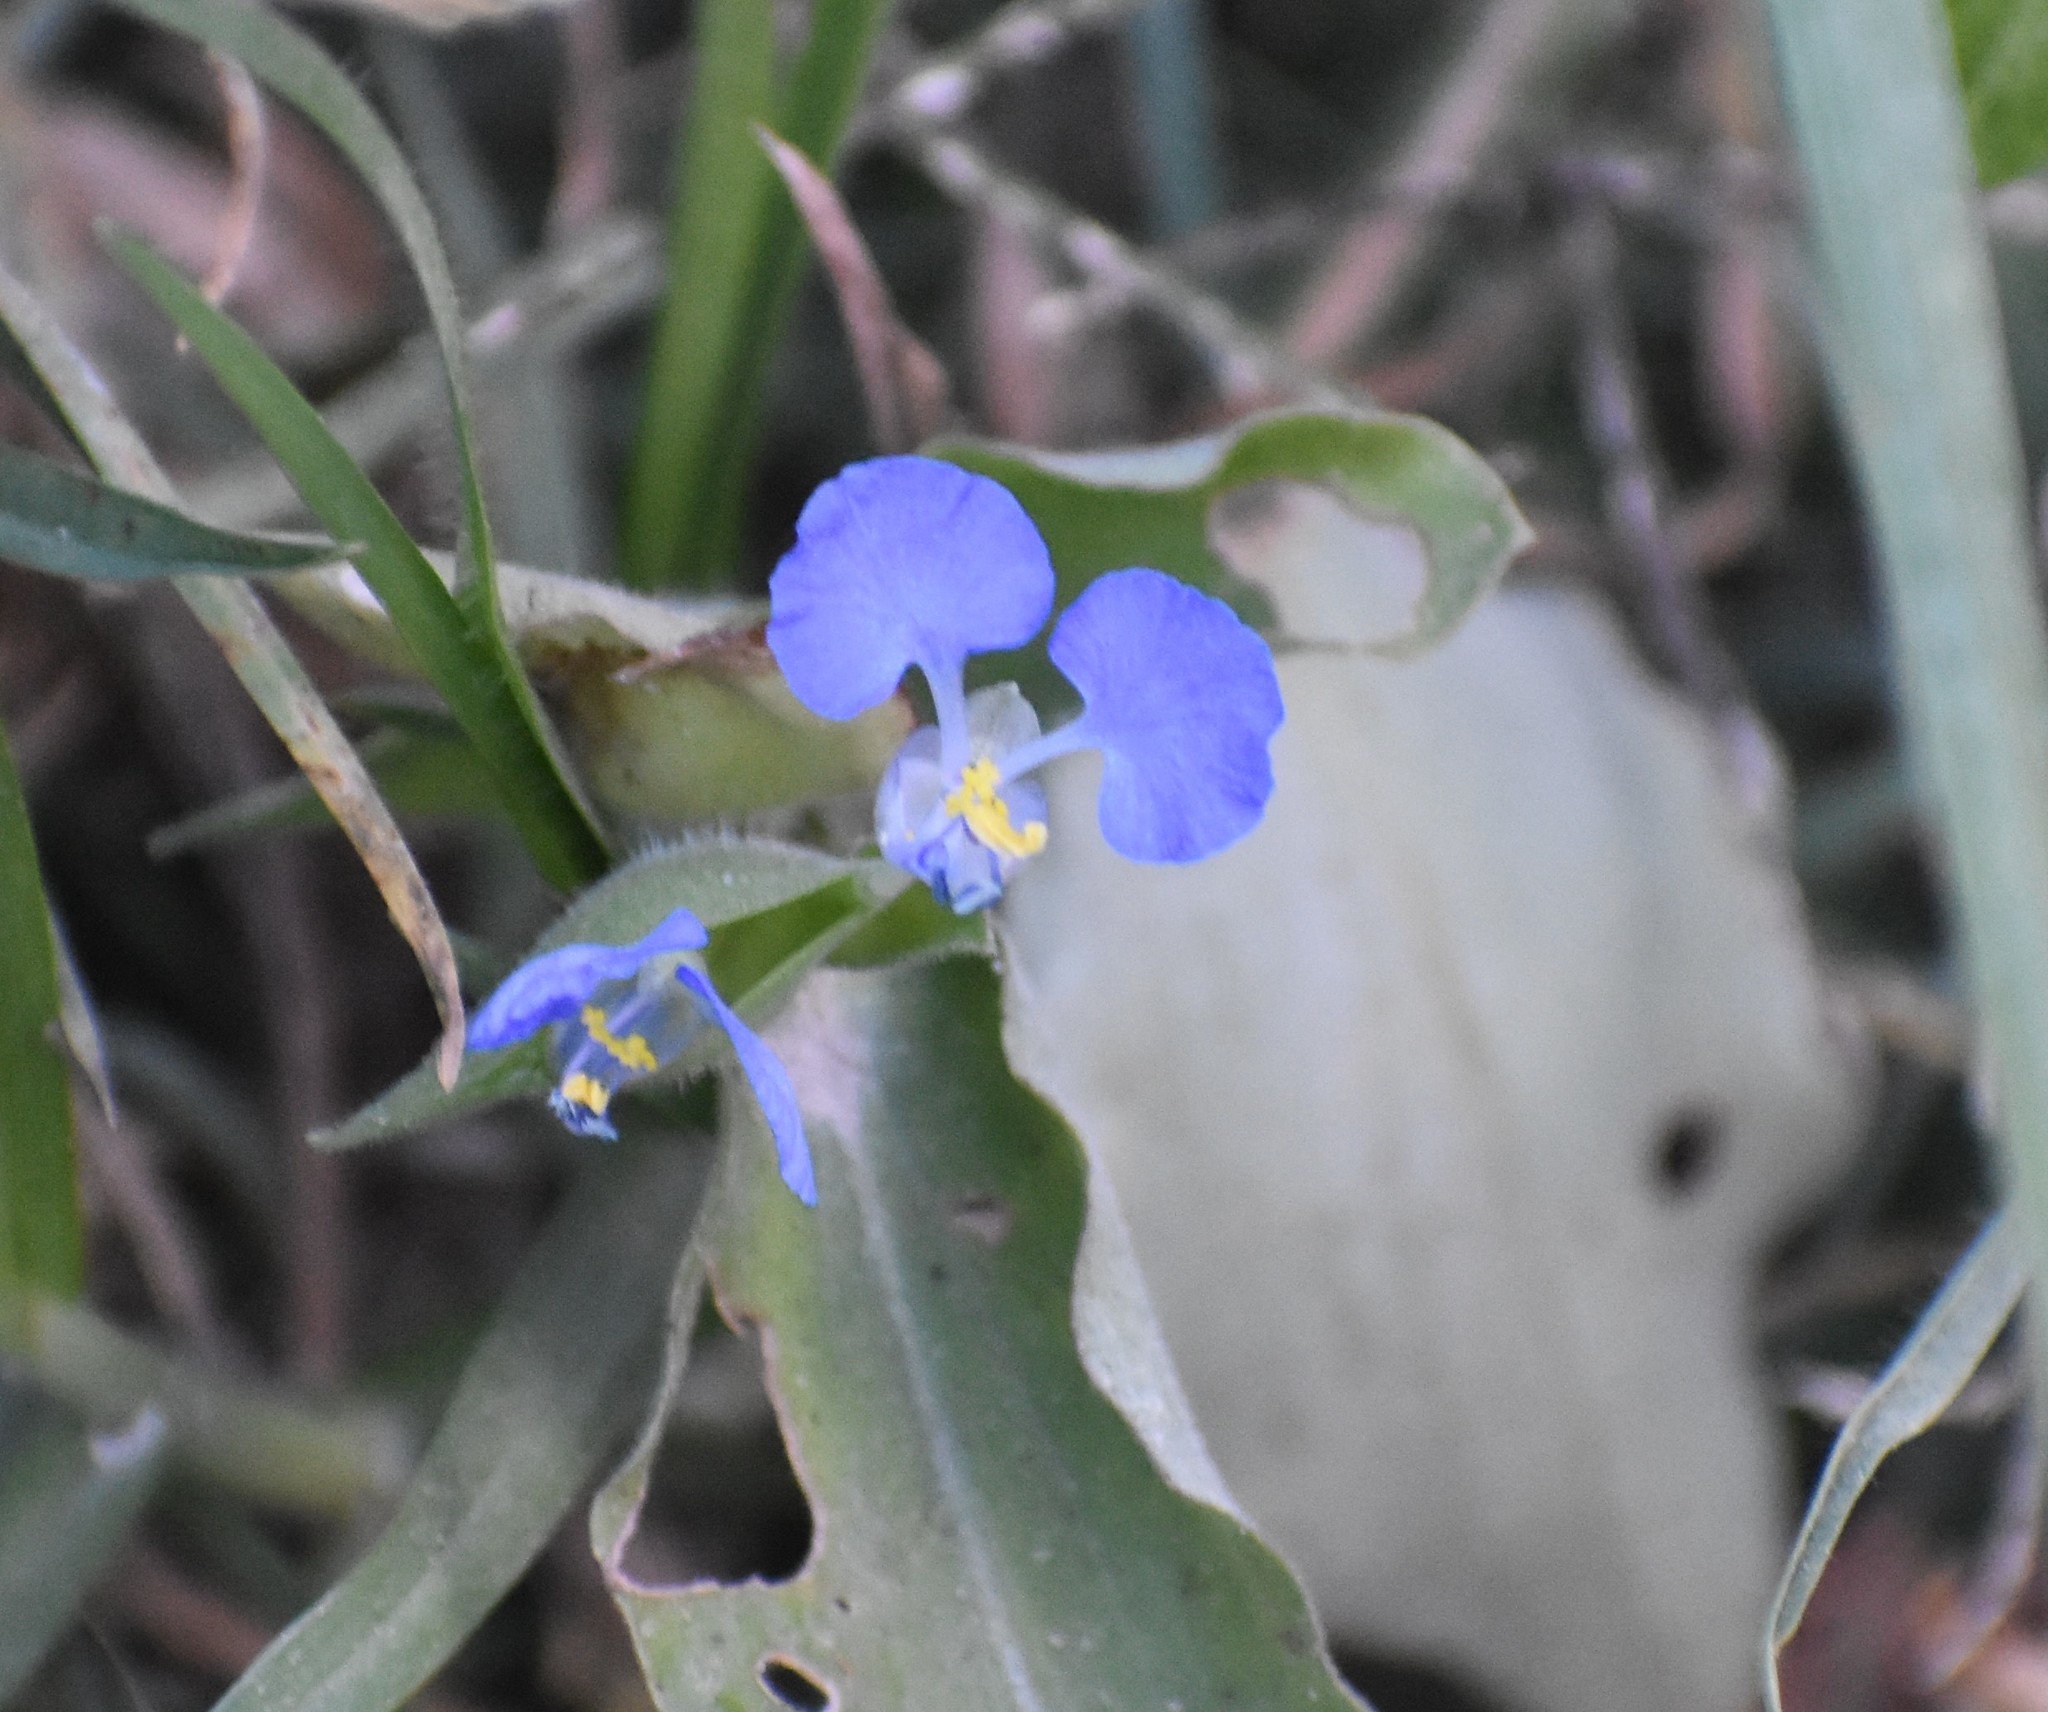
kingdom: Plantae
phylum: Tracheophyta
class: Liliopsida
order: Commelinales
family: Commelinaceae
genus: Commelina
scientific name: Commelina benghalensis
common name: Jio
